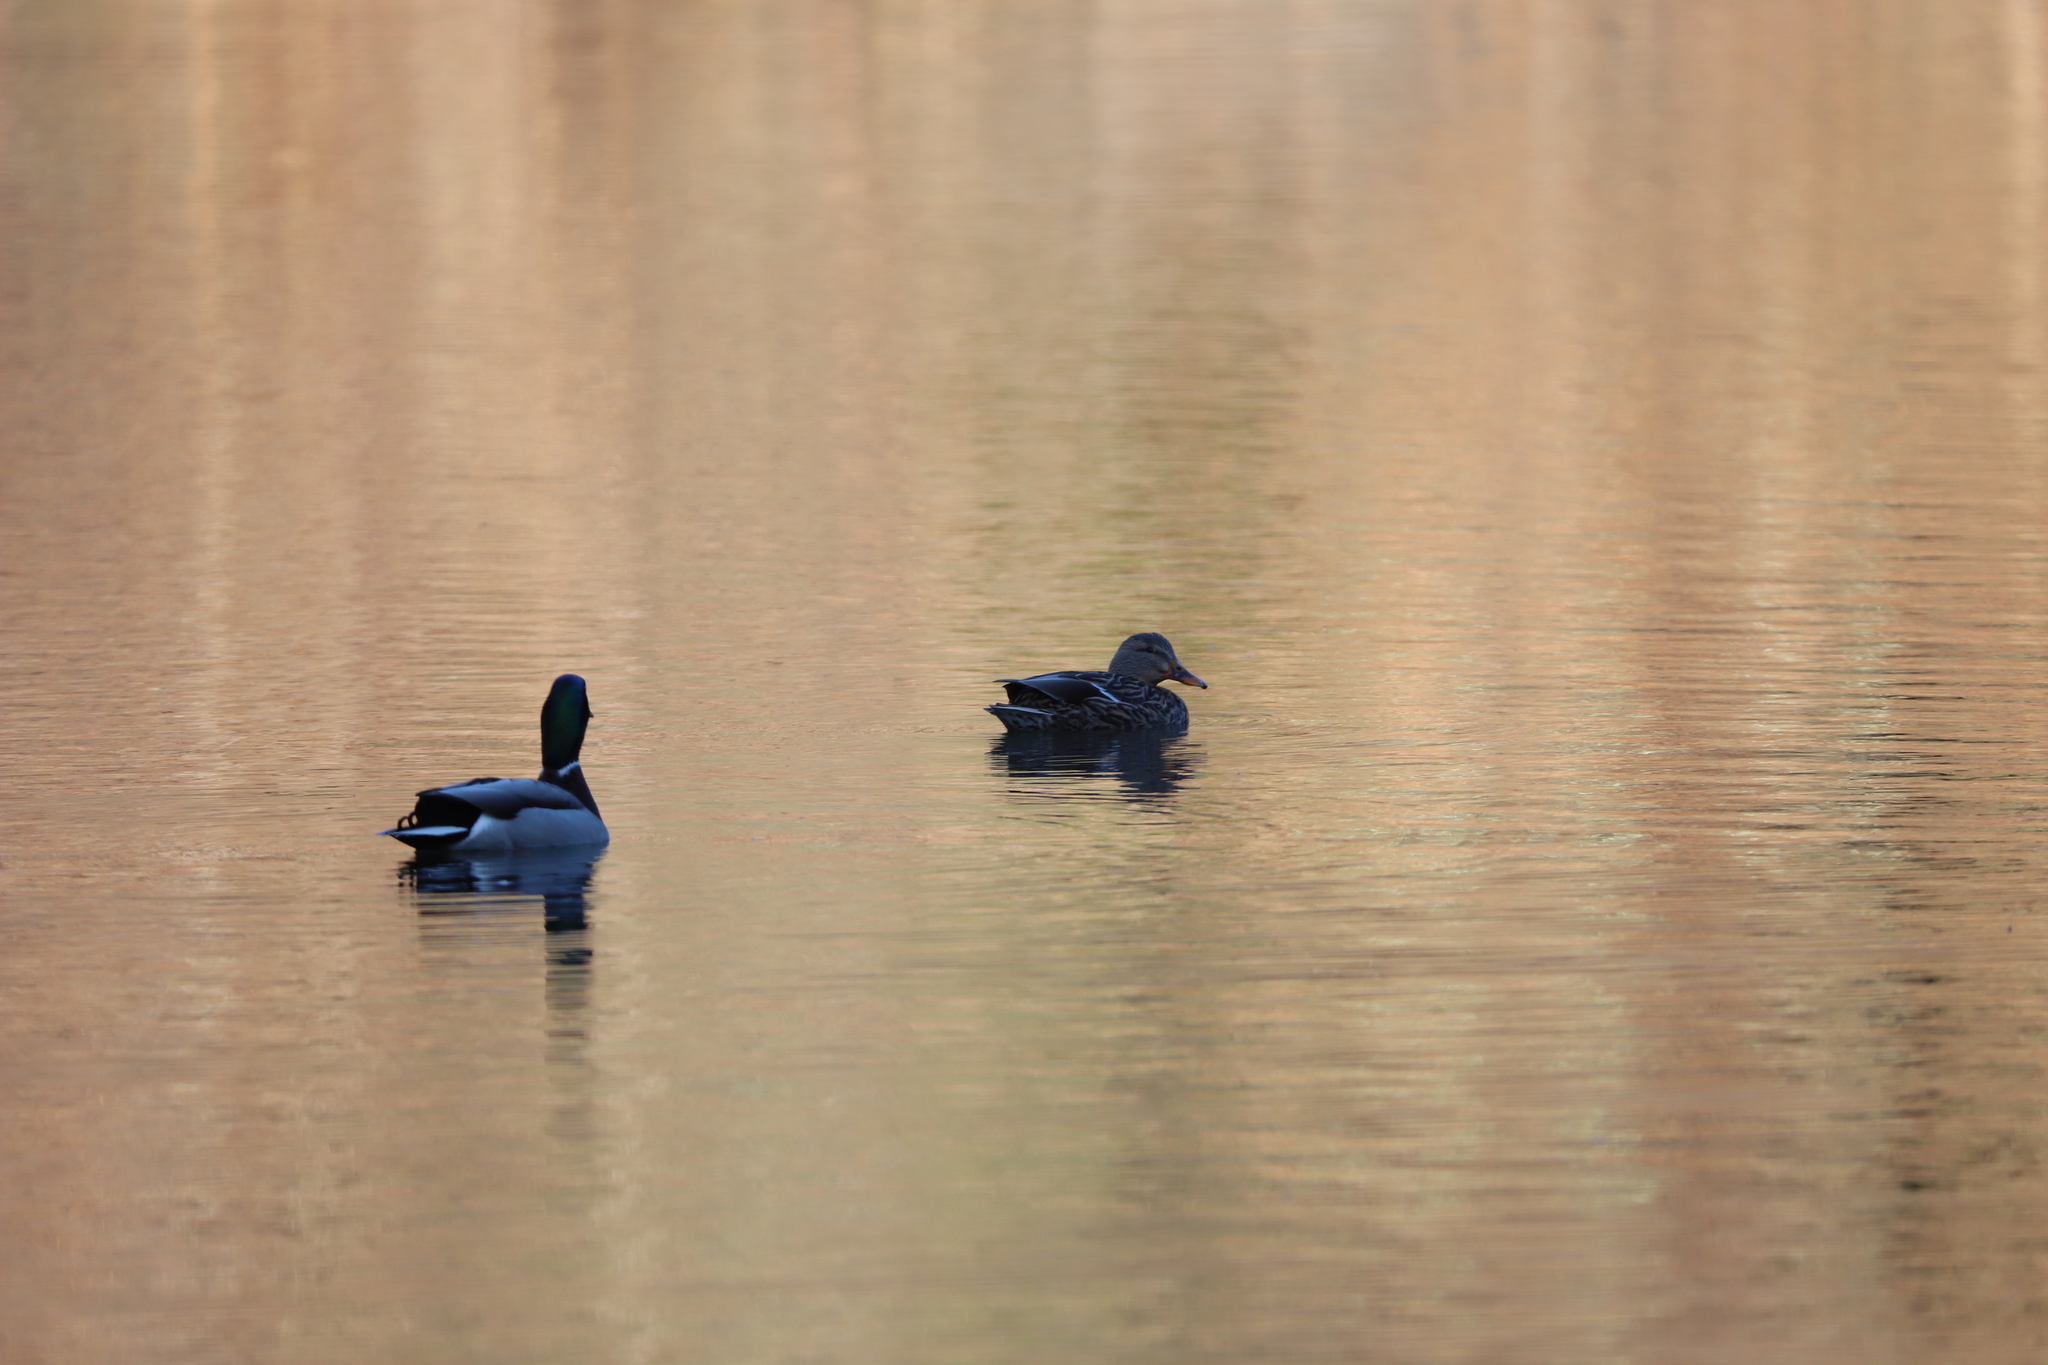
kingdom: Animalia
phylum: Chordata
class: Aves
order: Anseriformes
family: Anatidae
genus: Anas
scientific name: Anas platyrhynchos
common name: Mallard
